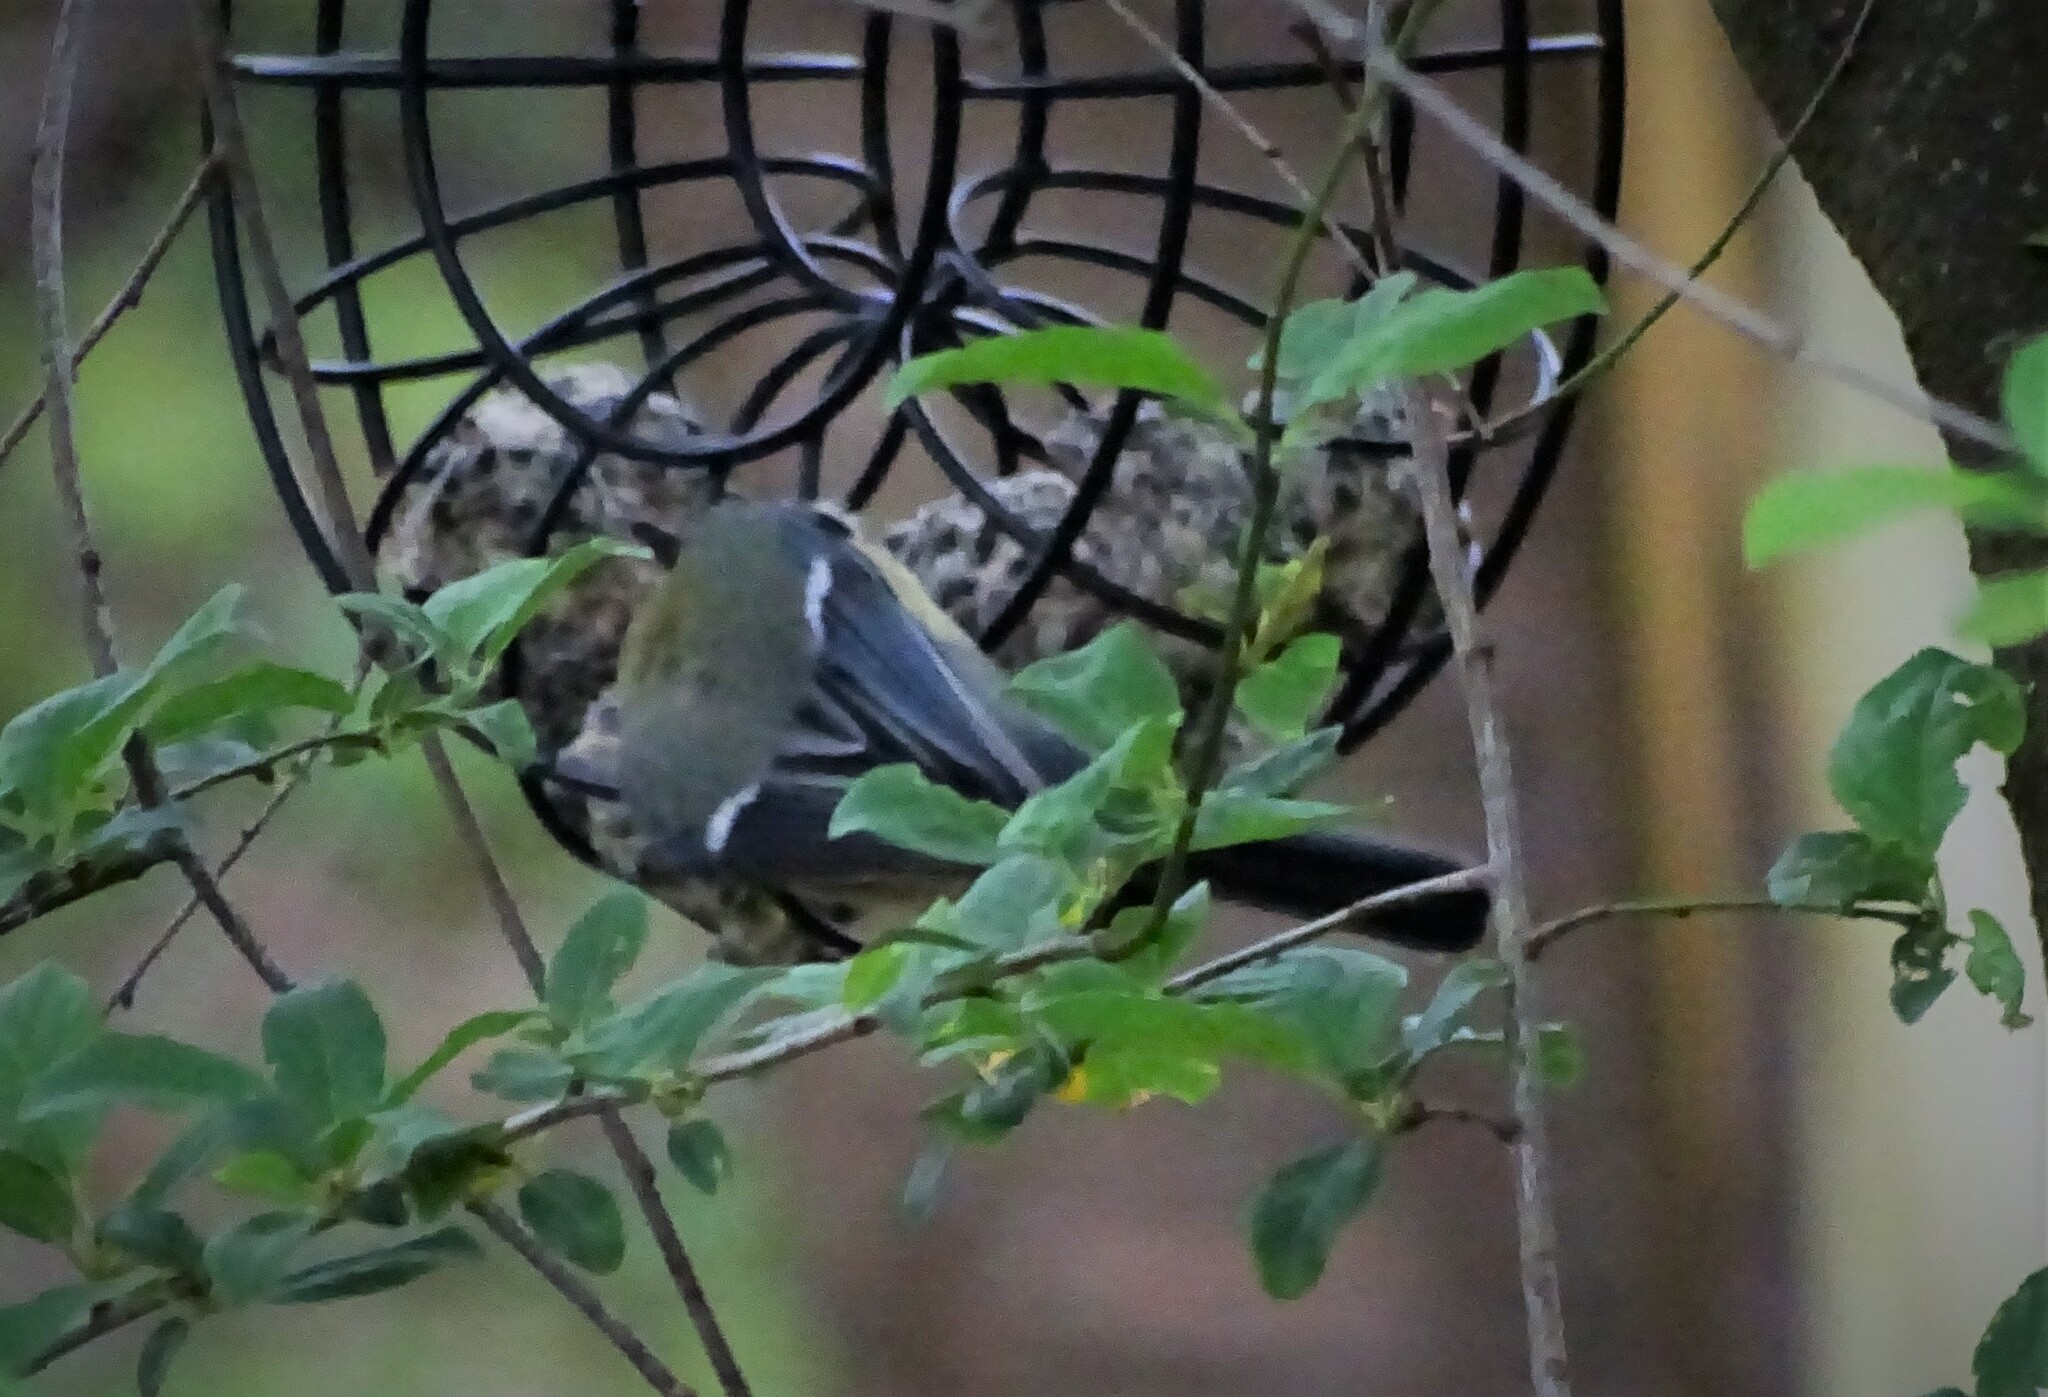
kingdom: Animalia
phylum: Chordata
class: Aves
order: Passeriformes
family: Paridae
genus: Parus
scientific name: Parus major
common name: Great tit
